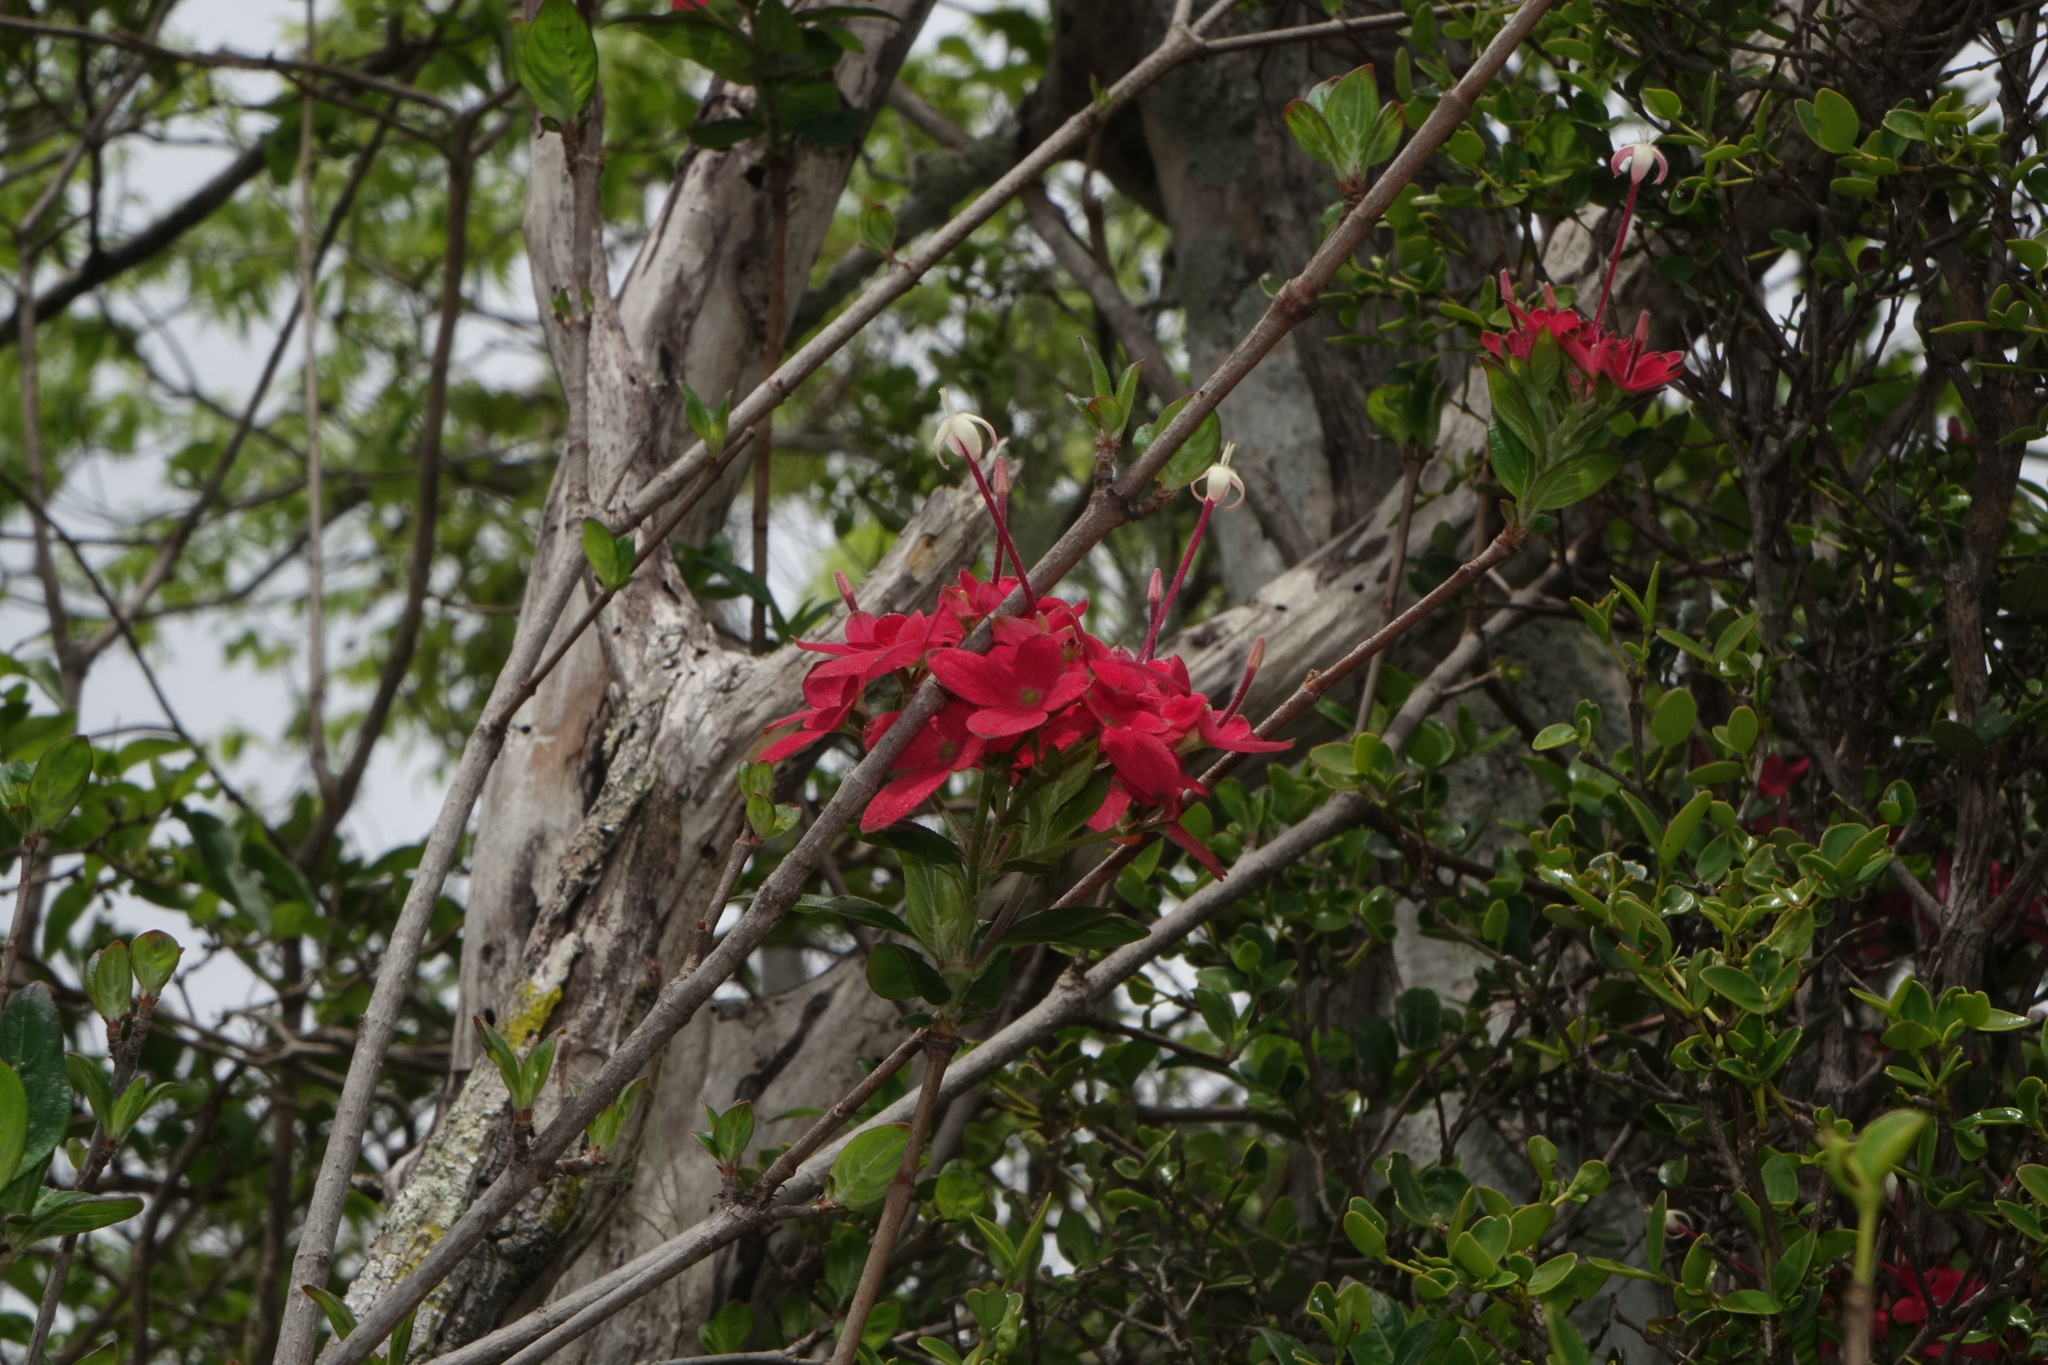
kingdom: Plantae
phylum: Tracheophyta
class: Magnoliopsida
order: Gentianales
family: Rubiaceae
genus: Paracarphalea
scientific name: Paracarphalea pervilleana
